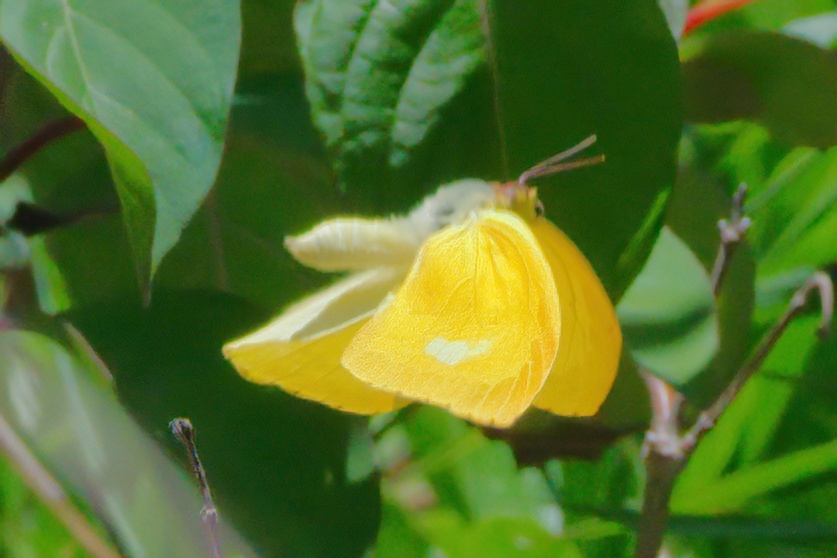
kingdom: Animalia
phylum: Arthropoda
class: Insecta
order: Lepidoptera
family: Pieridae
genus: Phoebis
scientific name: Phoebis agarithe
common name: Large orange sulphur
